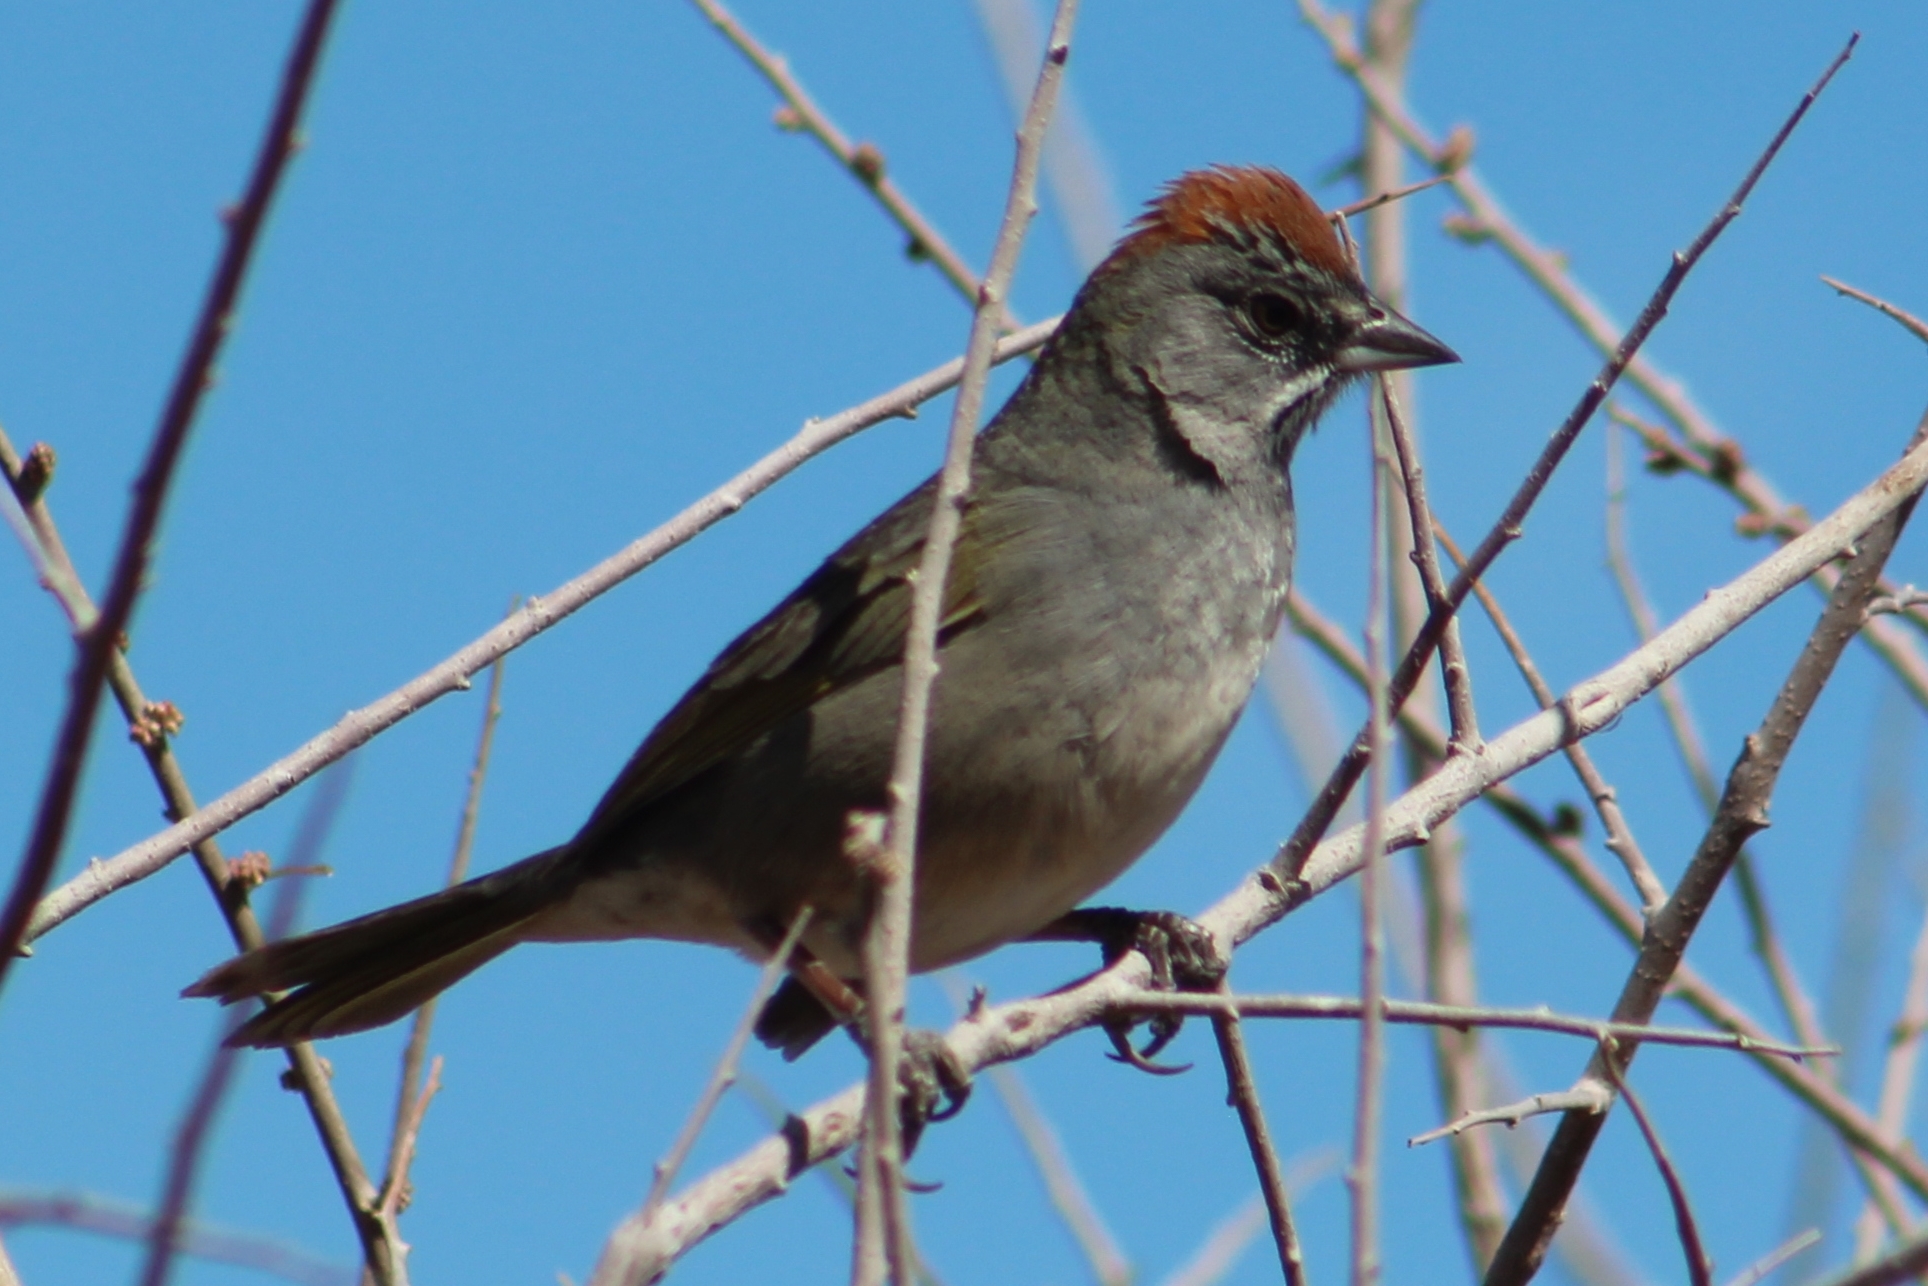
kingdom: Animalia
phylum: Chordata
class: Aves
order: Passeriformes
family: Passerellidae
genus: Pipilo
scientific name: Pipilo chlorurus
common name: Green-tailed towhee
